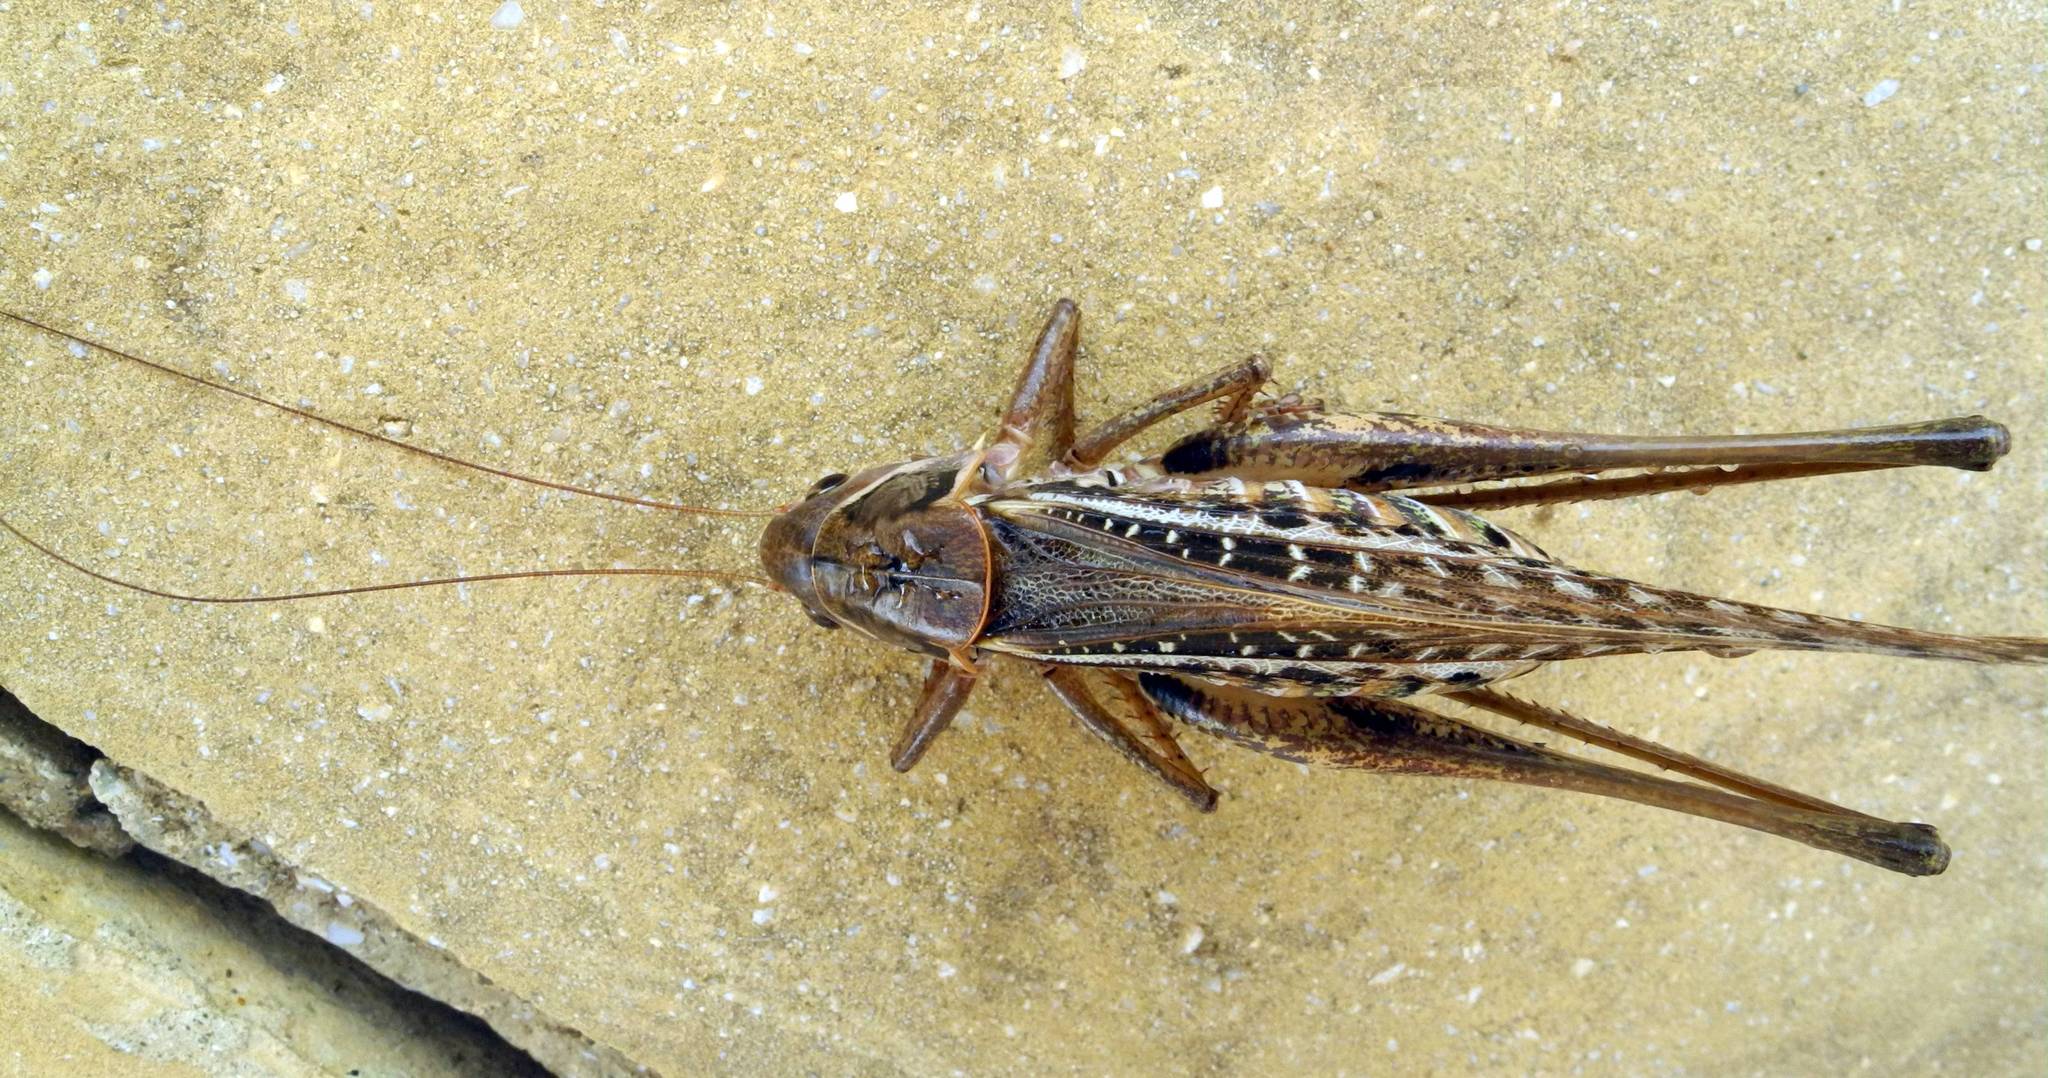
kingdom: Animalia
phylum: Arthropoda
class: Insecta
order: Orthoptera
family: Tettigoniidae
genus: Decticus
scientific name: Decticus albifrons
